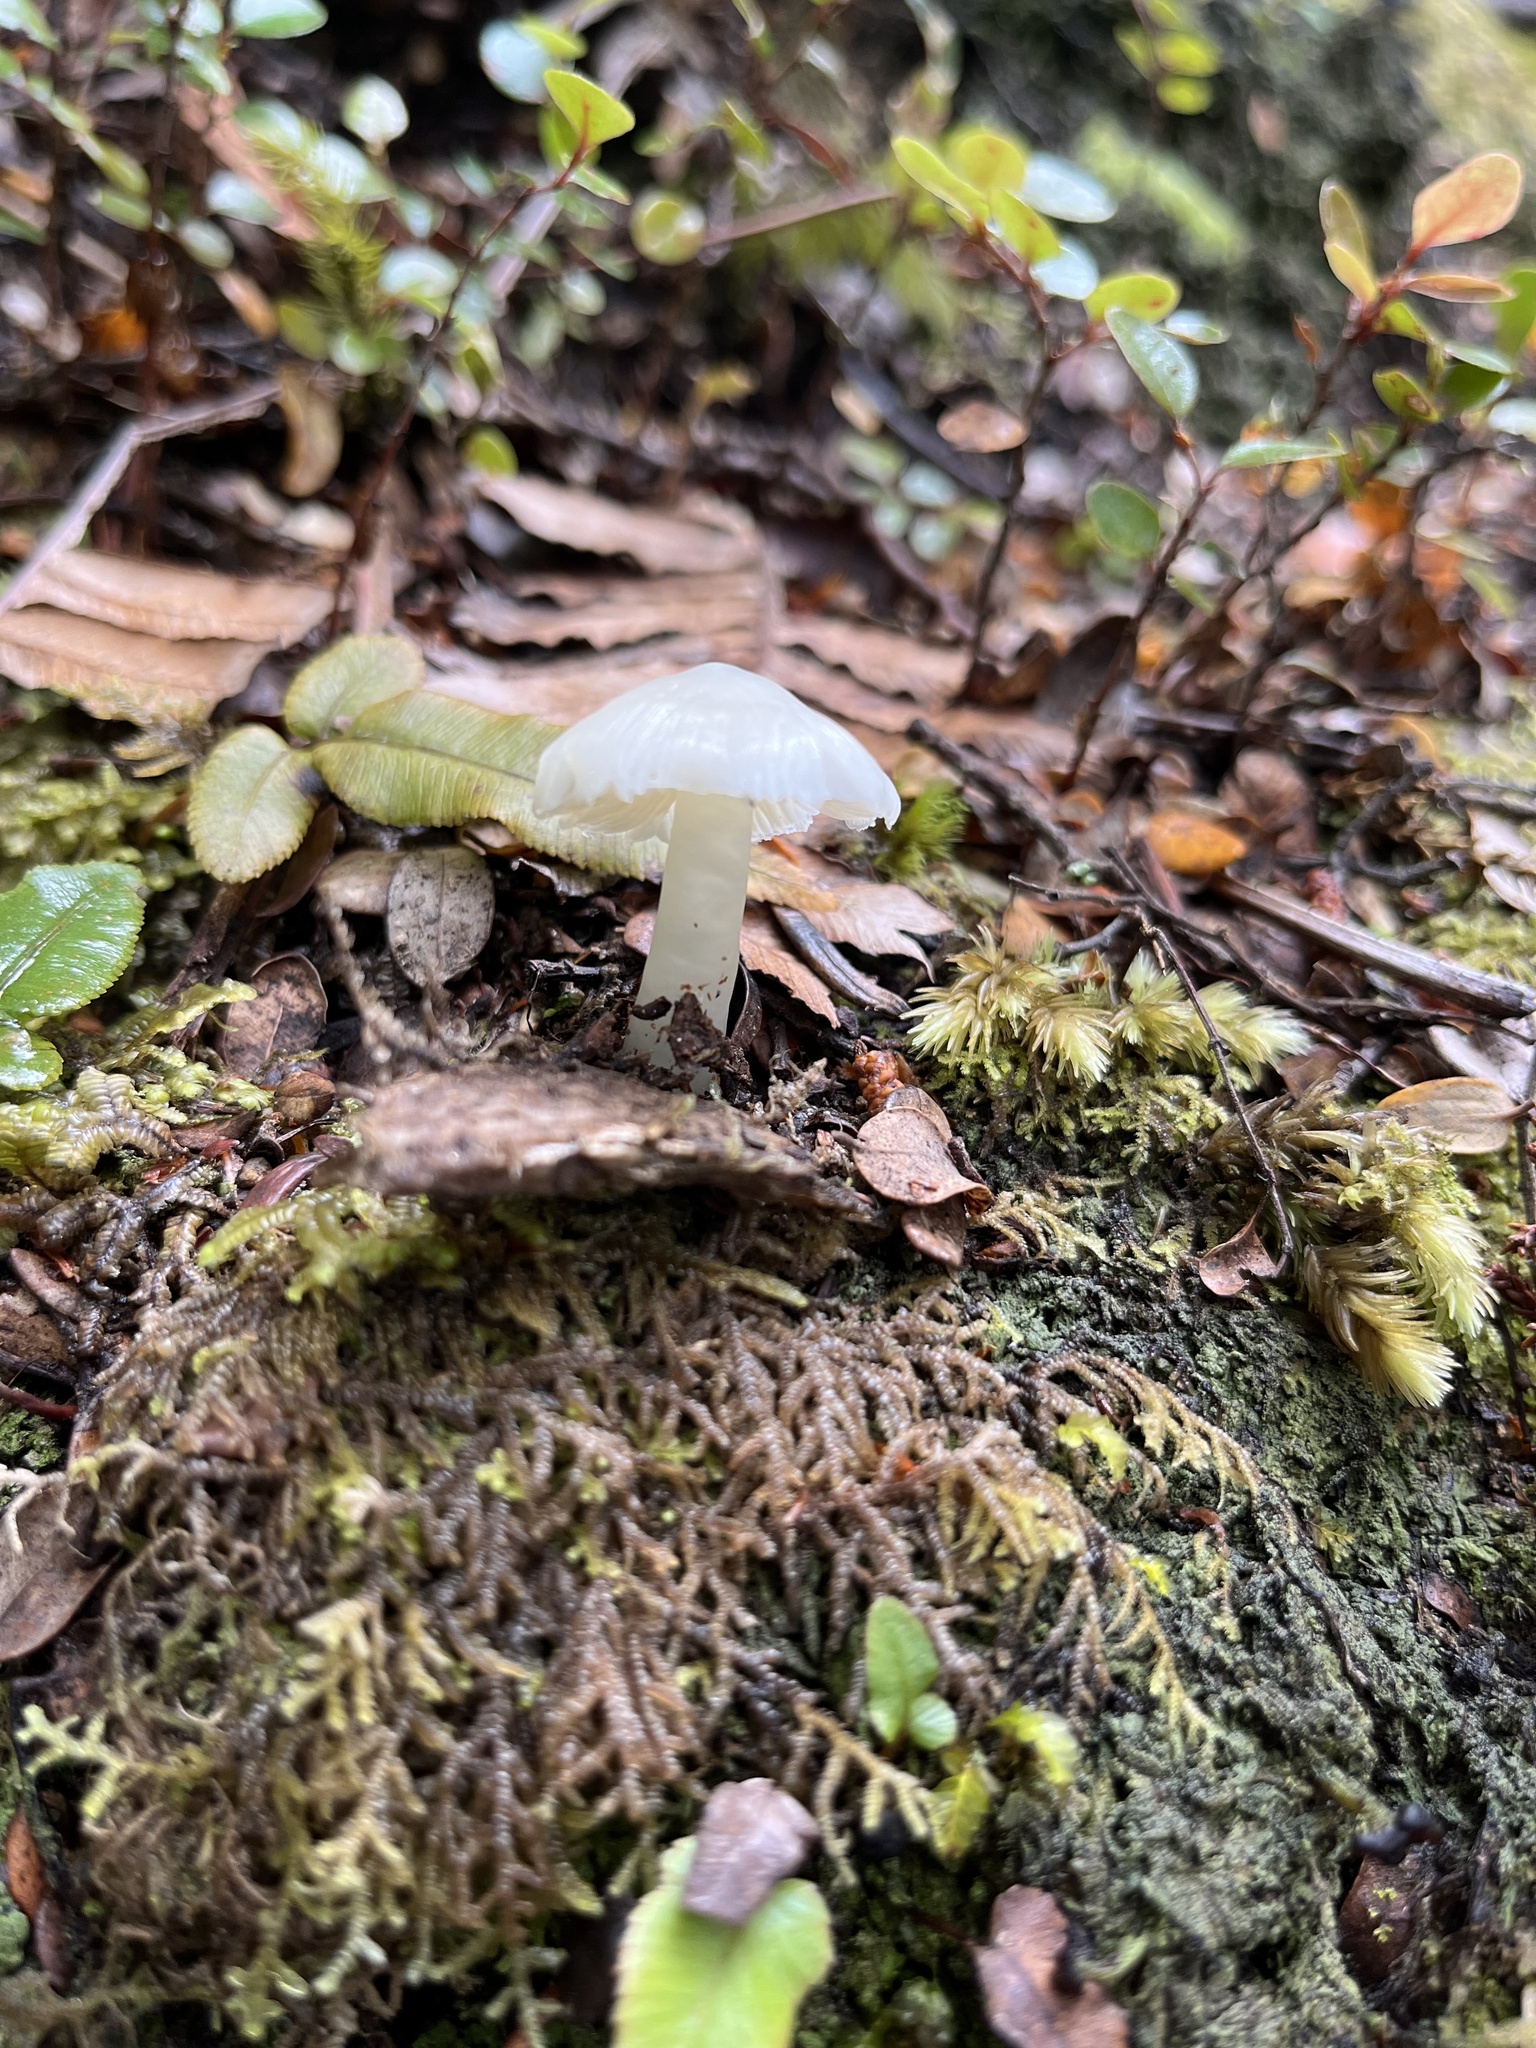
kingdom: Fungi
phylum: Basidiomycota
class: Agaricomycetes
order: Agaricales
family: Hygrophoraceae
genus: Humidicutis
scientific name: Humidicutis mavis
